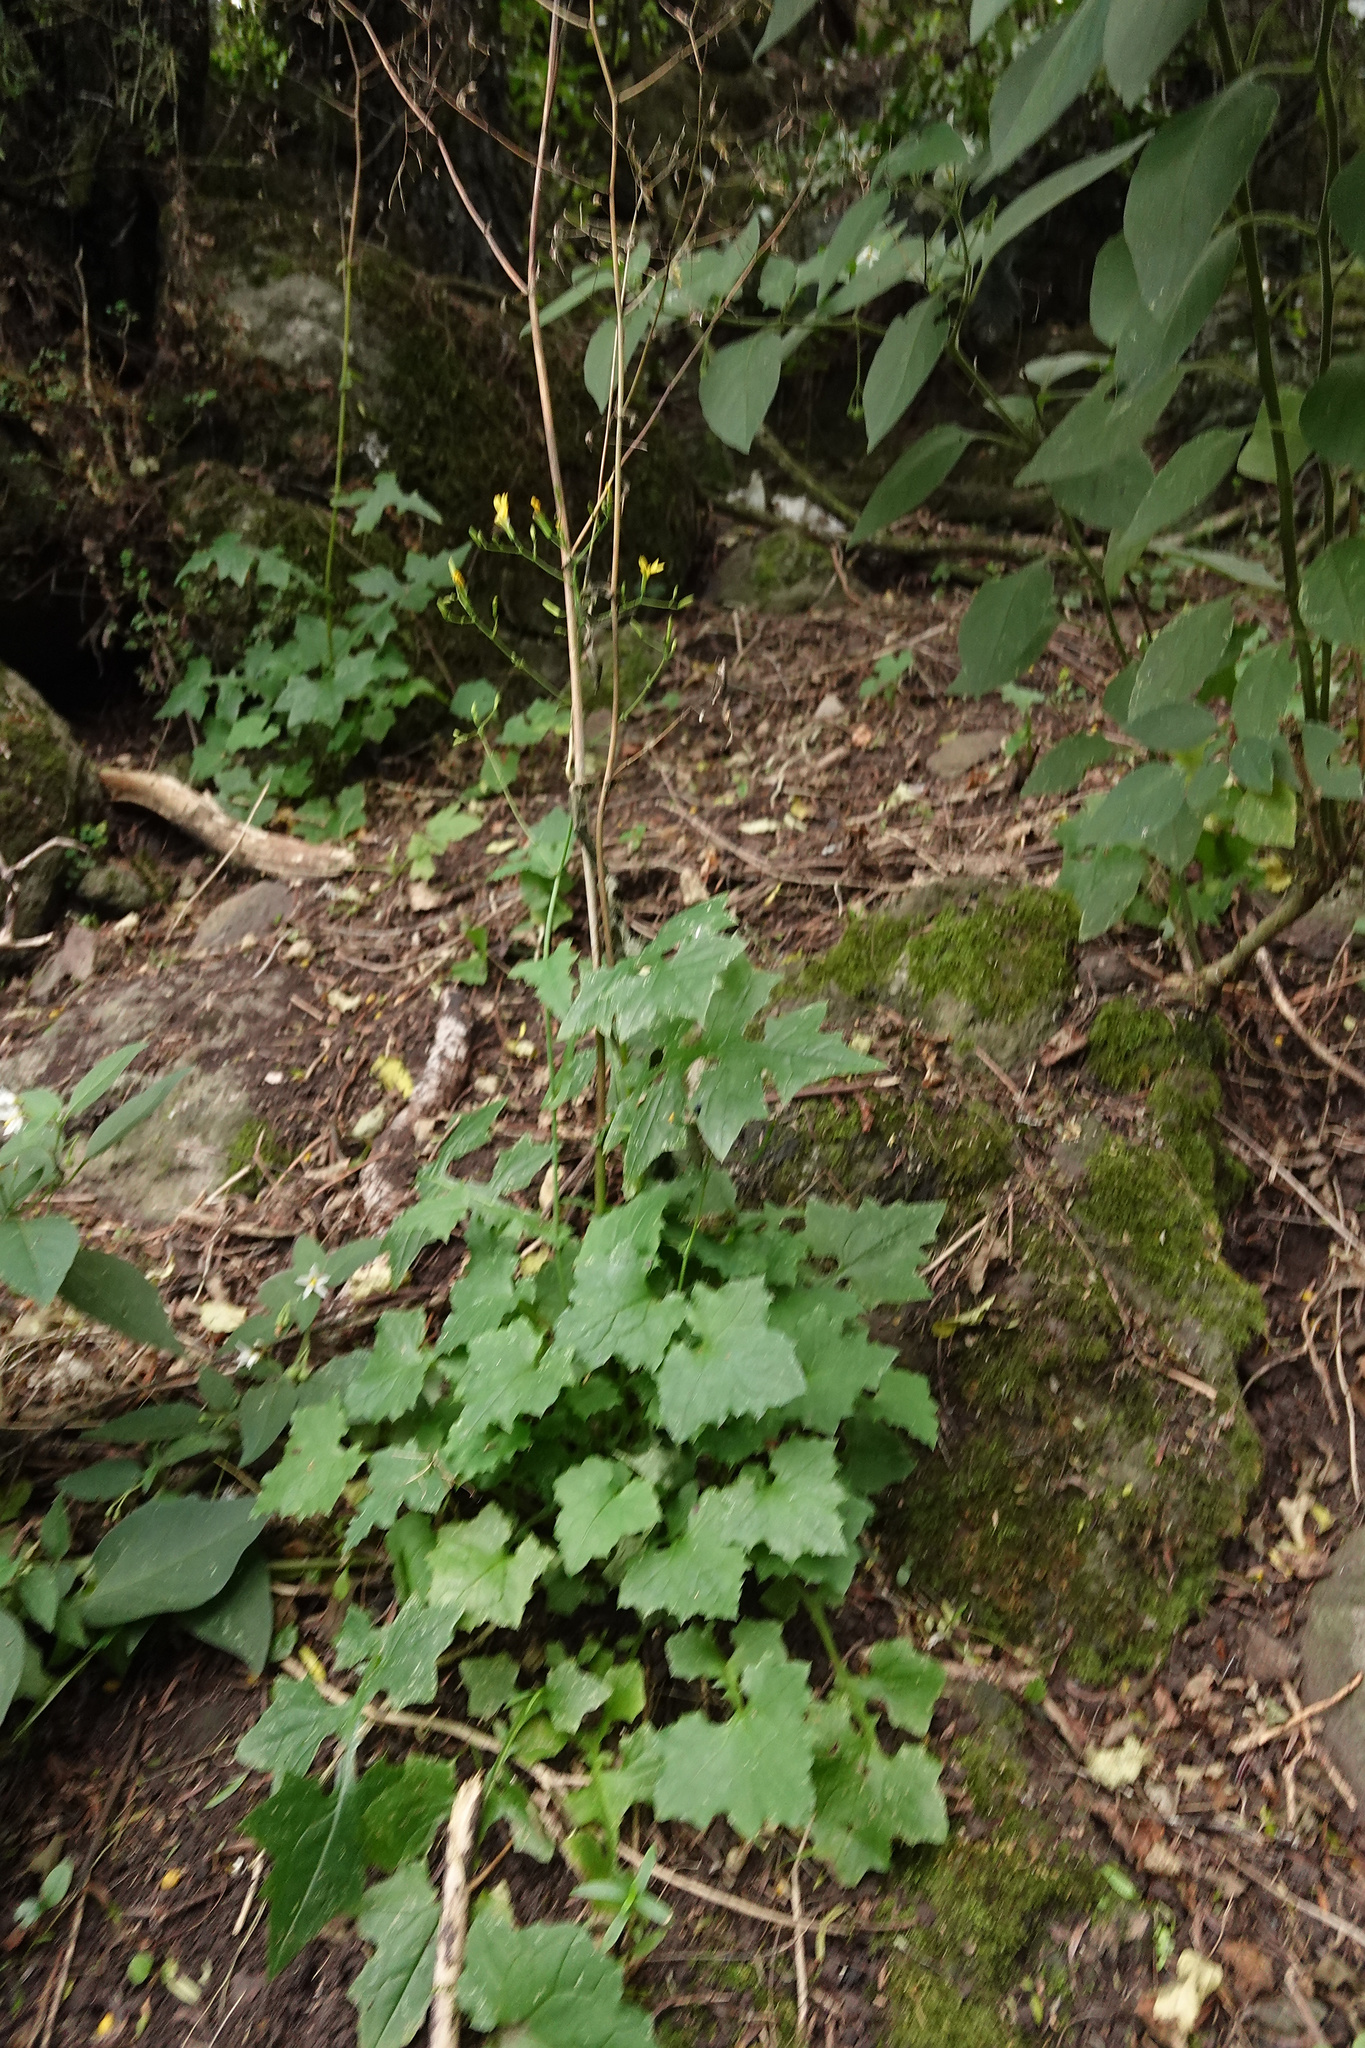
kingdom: Plantae
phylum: Tracheophyta
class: Magnoliopsida
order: Asterales
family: Asteraceae
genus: Mycelis
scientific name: Mycelis muralis
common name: Wall lettuce
